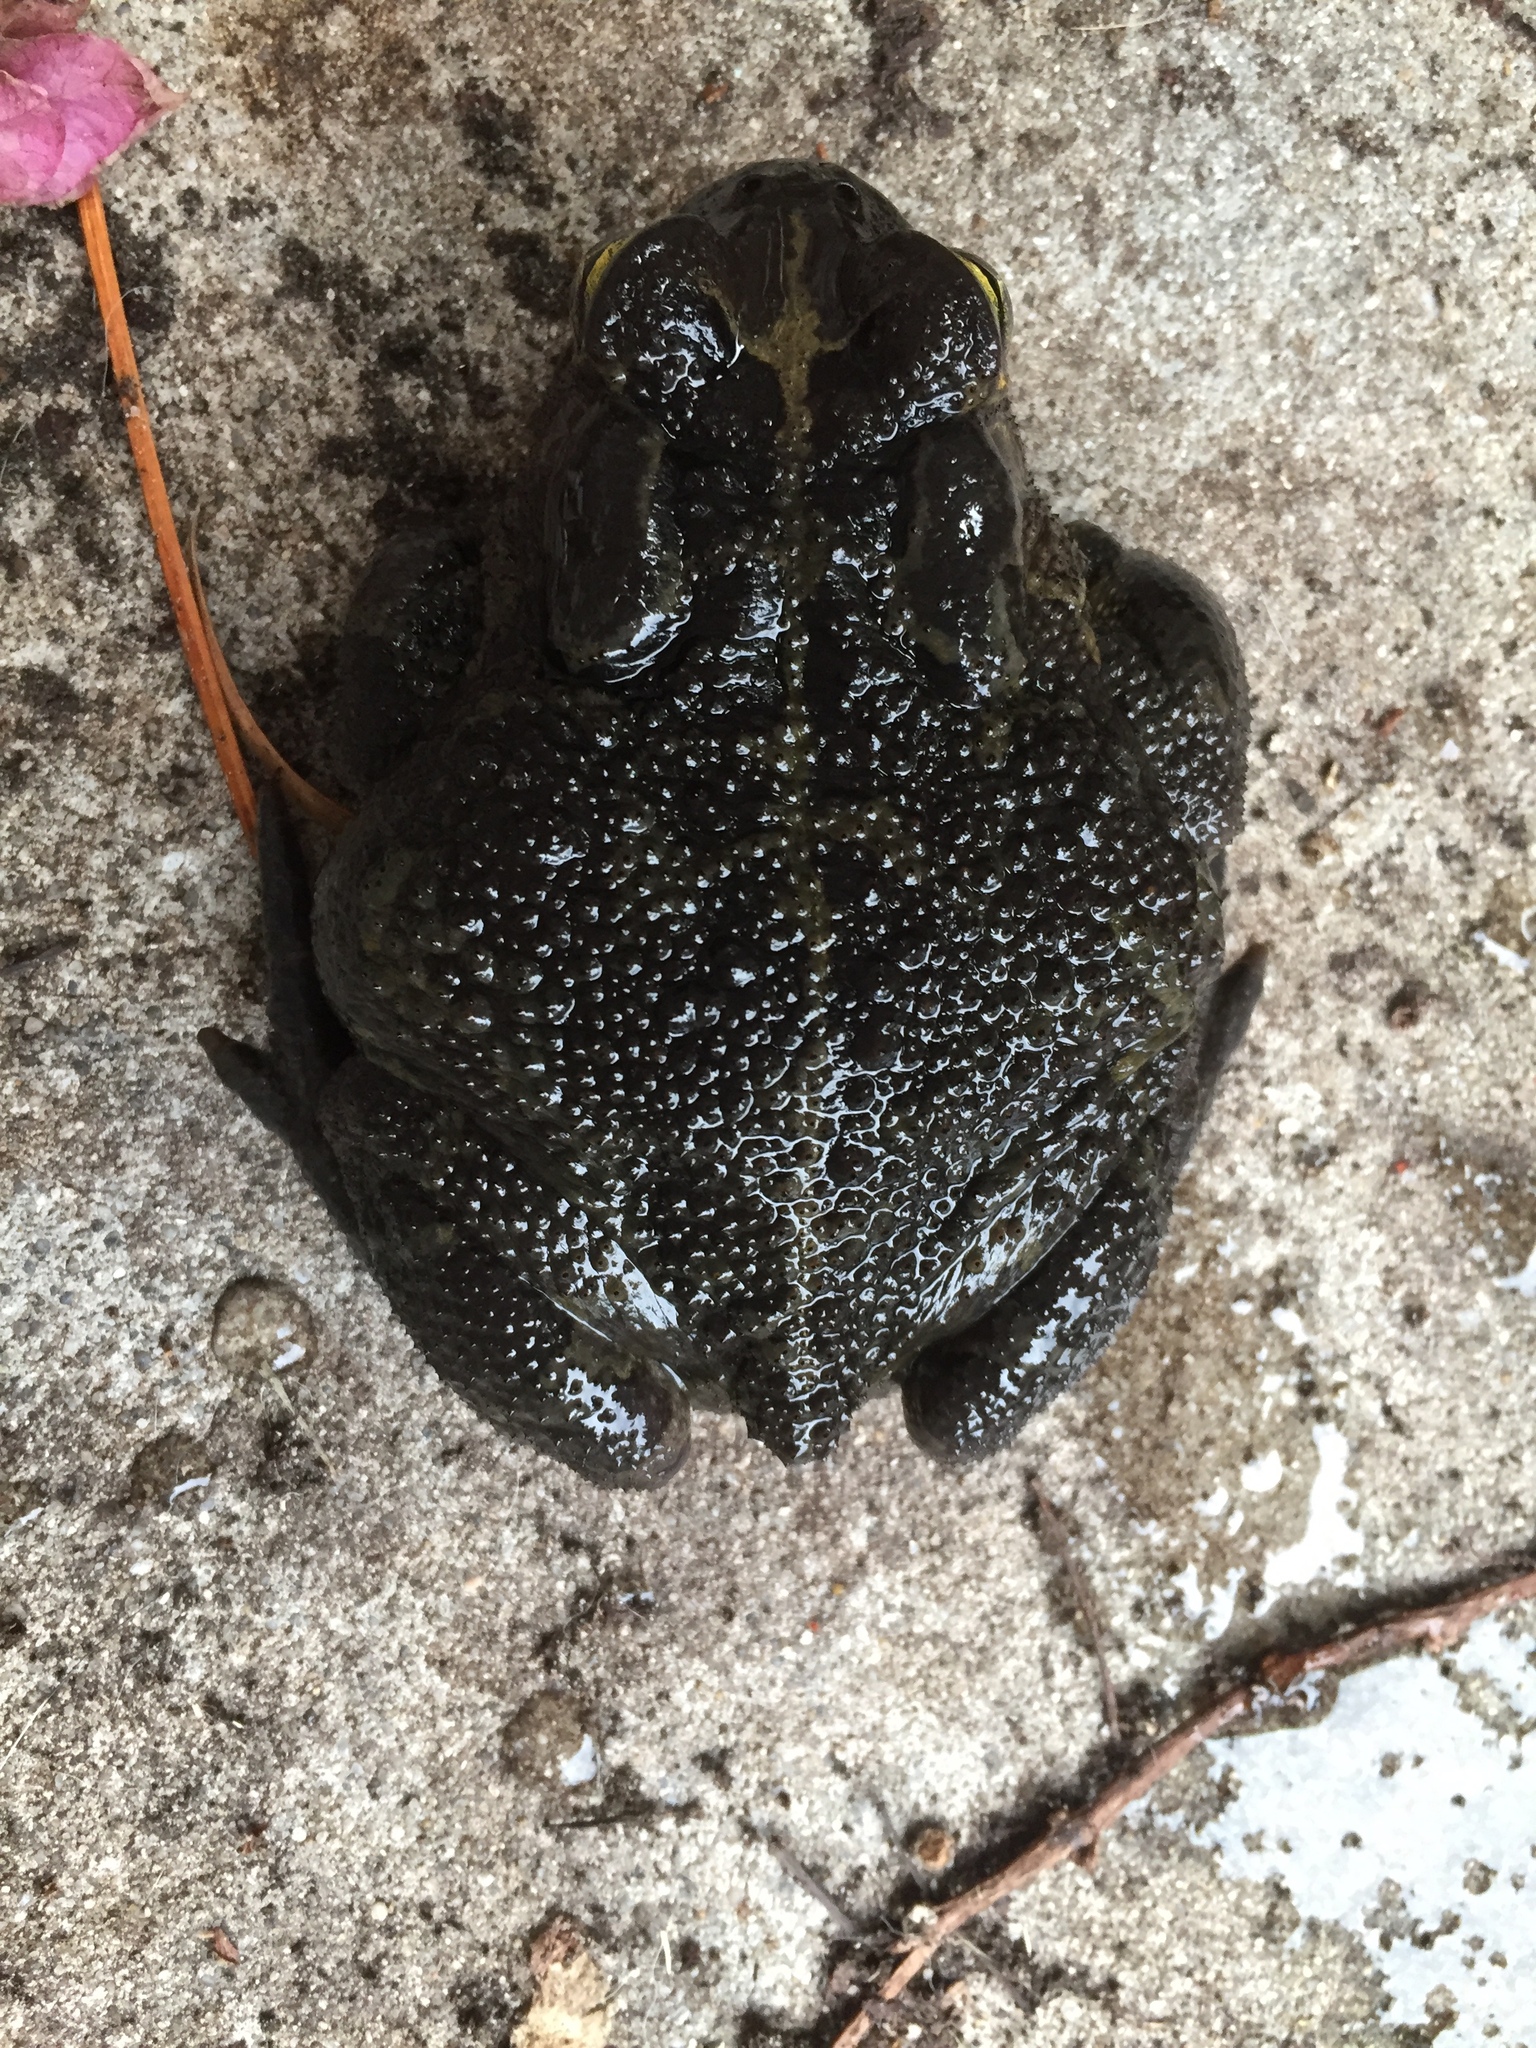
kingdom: Animalia
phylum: Chordata
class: Amphibia
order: Anura
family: Bufonidae
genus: Sclerophrys
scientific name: Sclerophrys pantherina
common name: Panther toad
